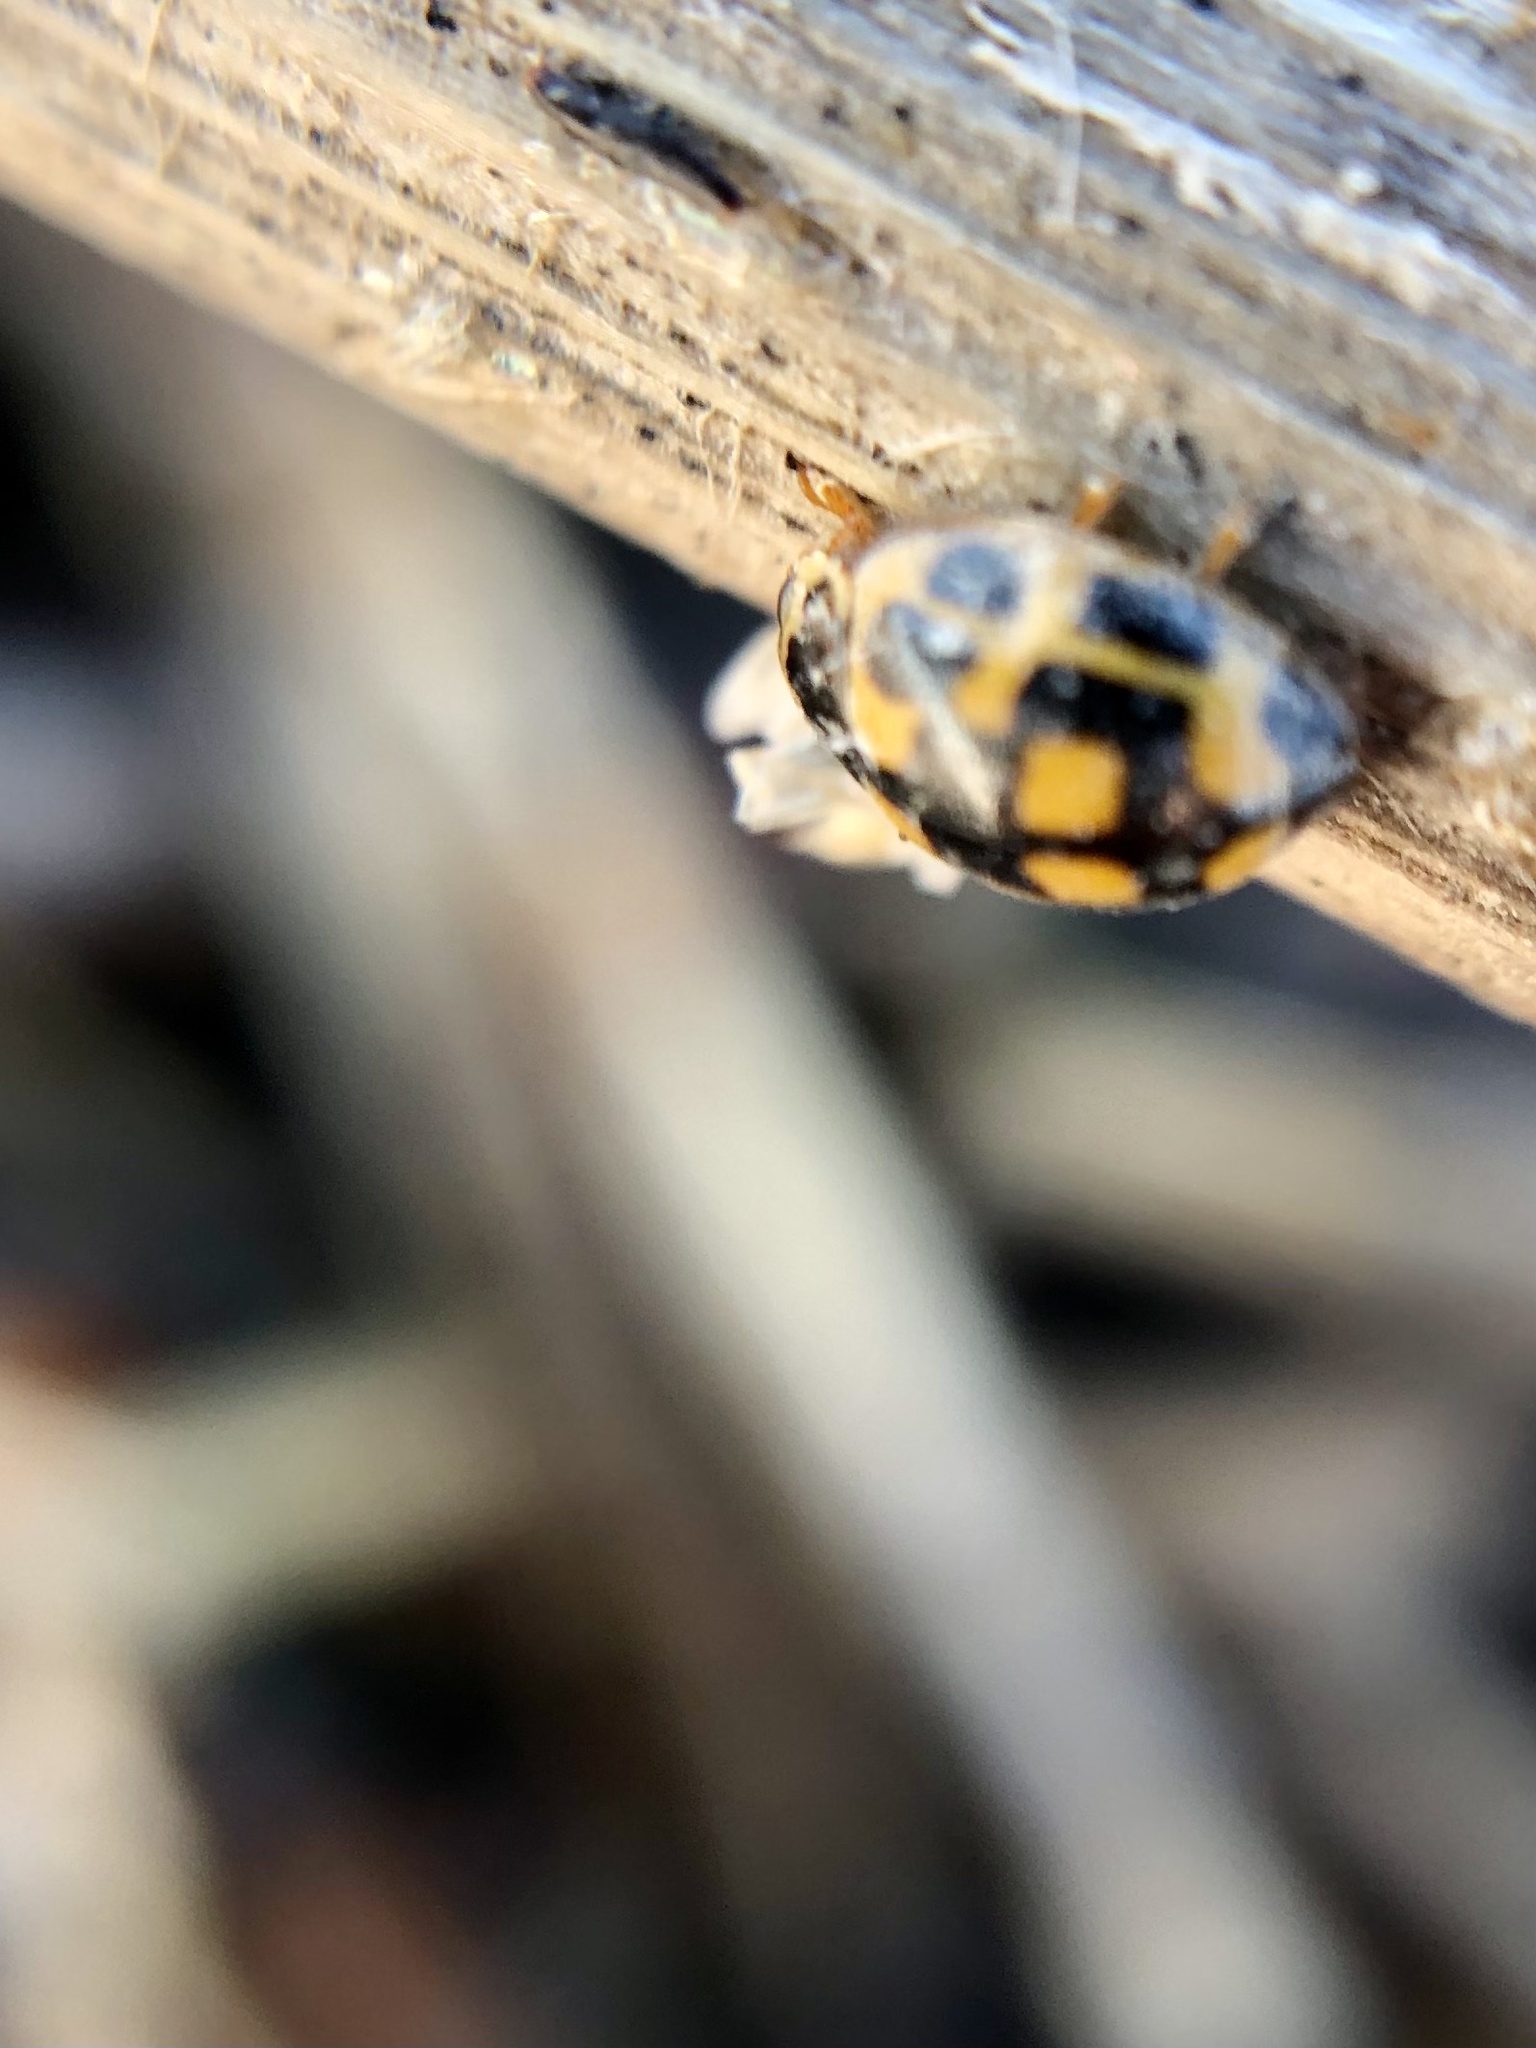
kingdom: Animalia
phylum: Arthropoda
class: Insecta
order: Coleoptera
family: Coccinellidae
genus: Propylaea
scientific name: Propylaea quatuordecimpunctata
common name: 14-spotted ladybird beetle
